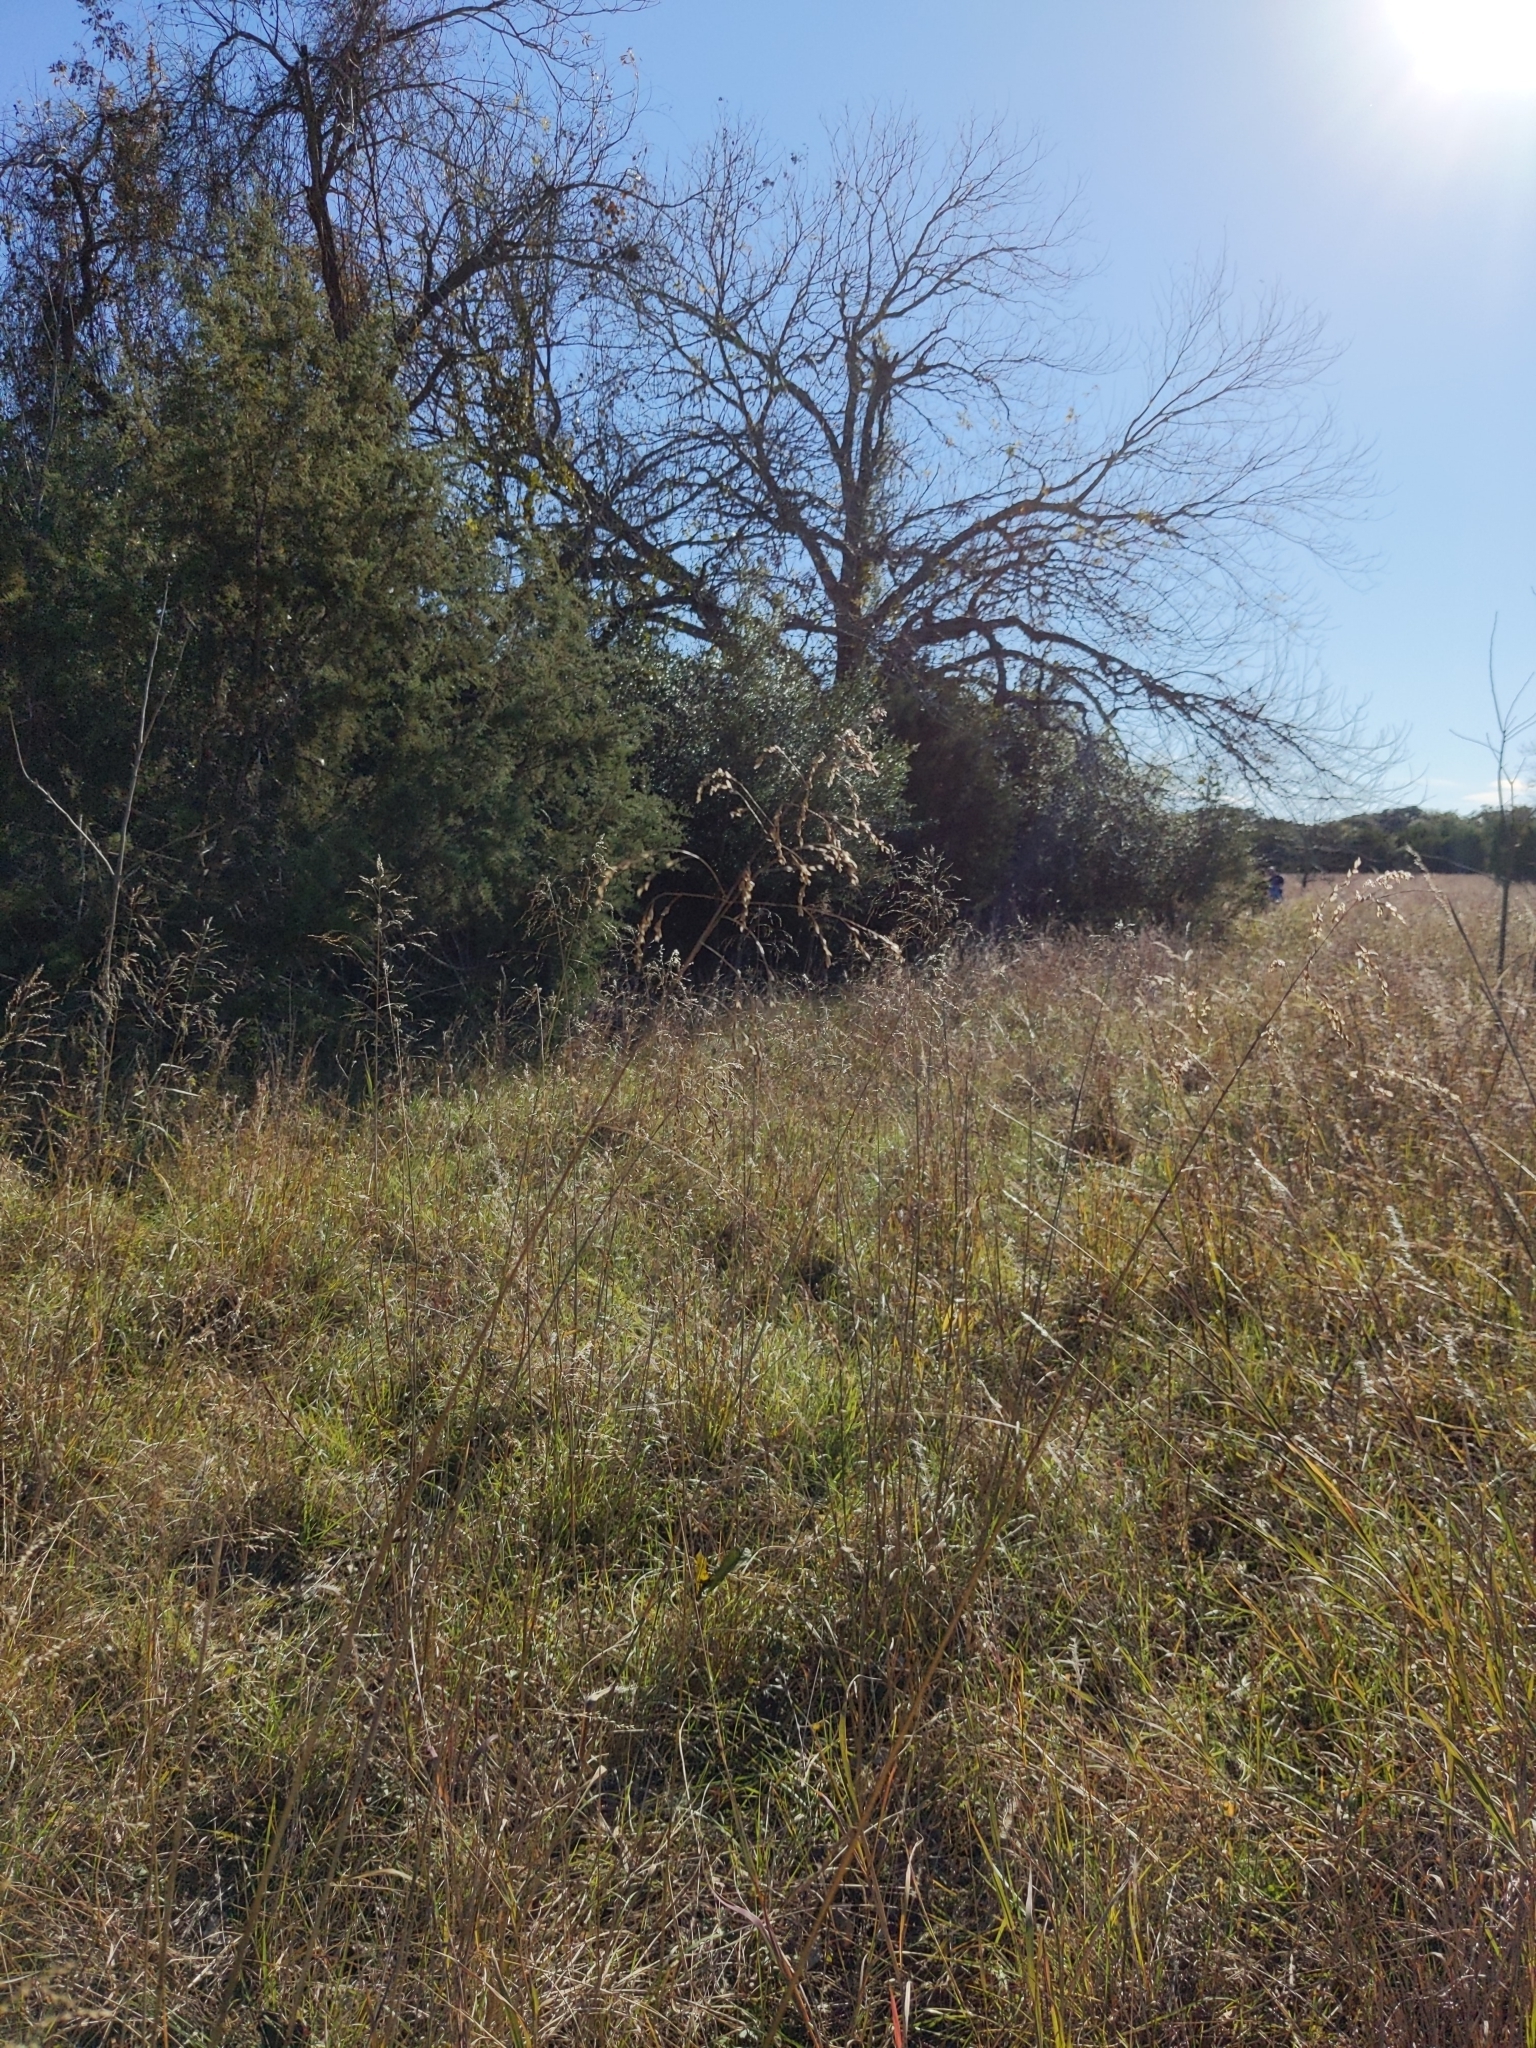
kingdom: Plantae
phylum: Tracheophyta
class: Liliopsida
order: Poales
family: Poaceae
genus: Tridens
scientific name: Tridens flavus
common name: Purpletop
